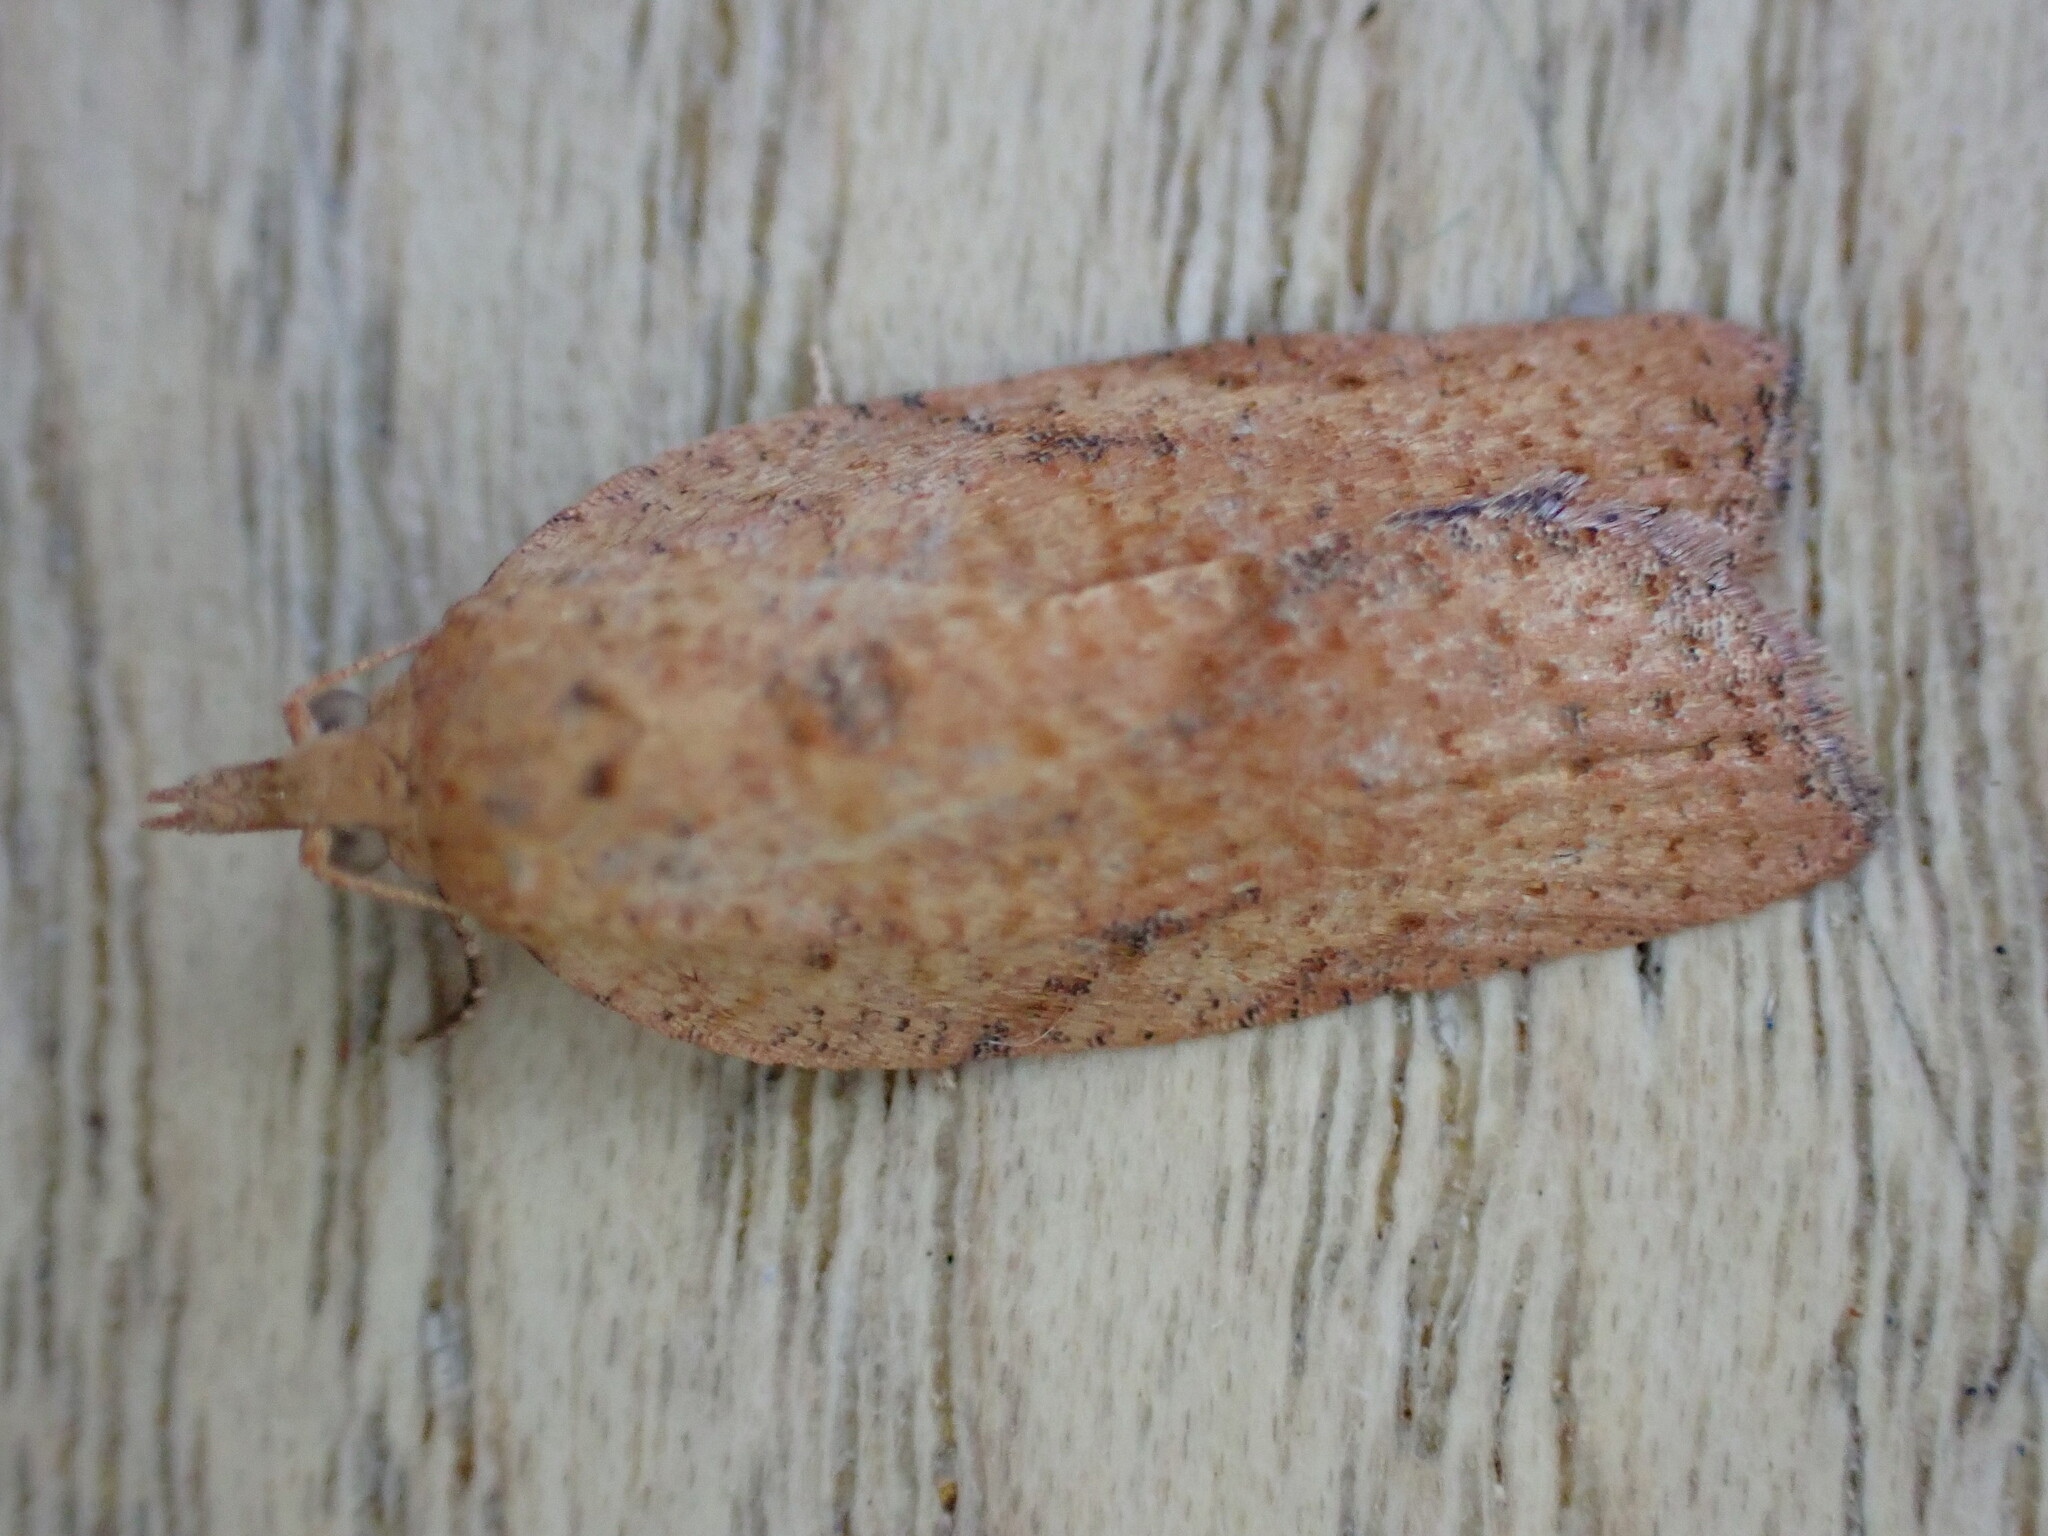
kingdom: Animalia
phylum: Arthropoda
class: Insecta
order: Lepidoptera
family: Tortricidae
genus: Epiphyas
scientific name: Epiphyas postvittana
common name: Light brown apple moth
